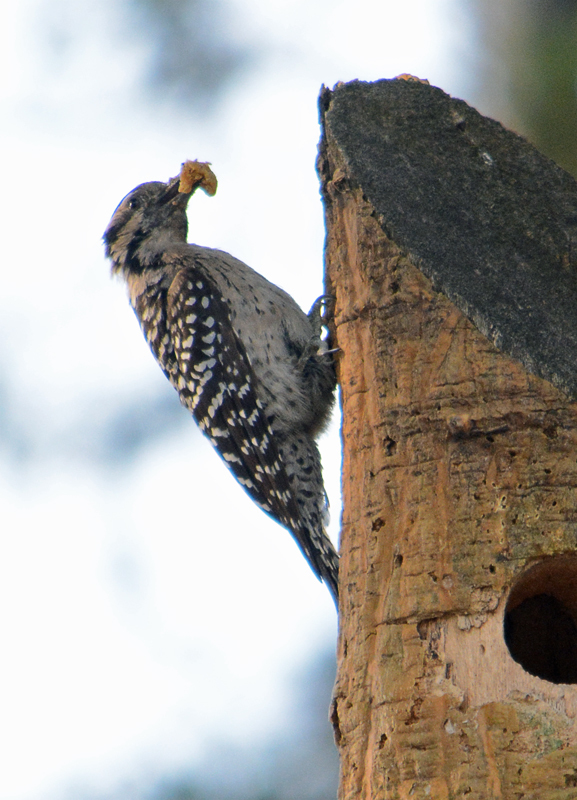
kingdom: Animalia
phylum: Chordata
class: Aves
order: Piciformes
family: Picidae
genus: Dryobates
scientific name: Dryobates scalaris
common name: Ladder-backed woodpecker
